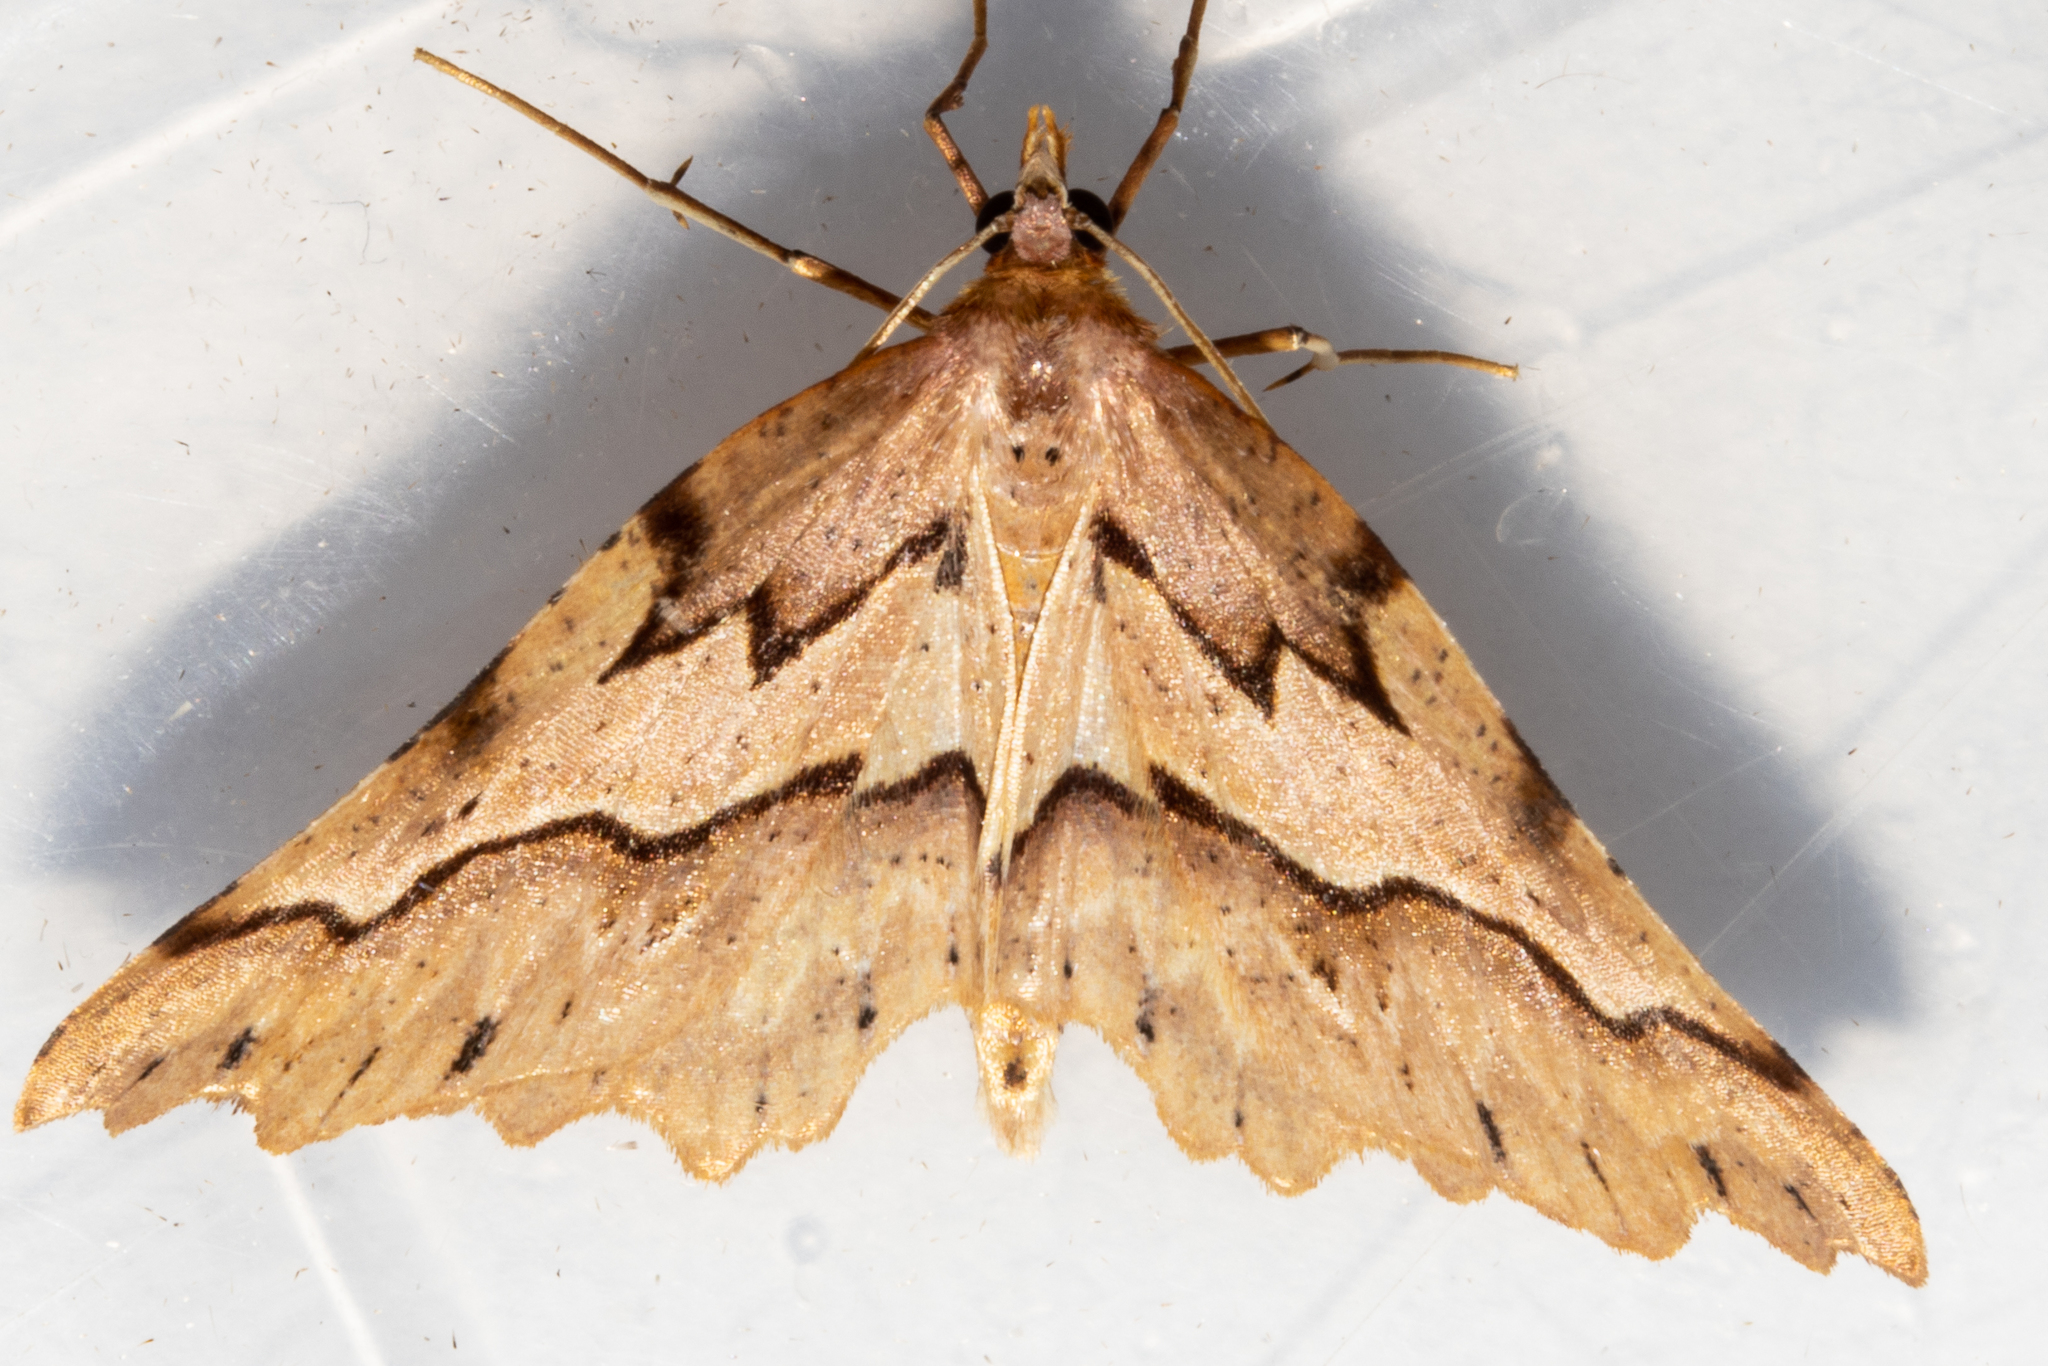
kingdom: Animalia
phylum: Arthropoda
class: Insecta
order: Lepidoptera
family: Geometridae
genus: Ischalis
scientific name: Ischalis fortinata
